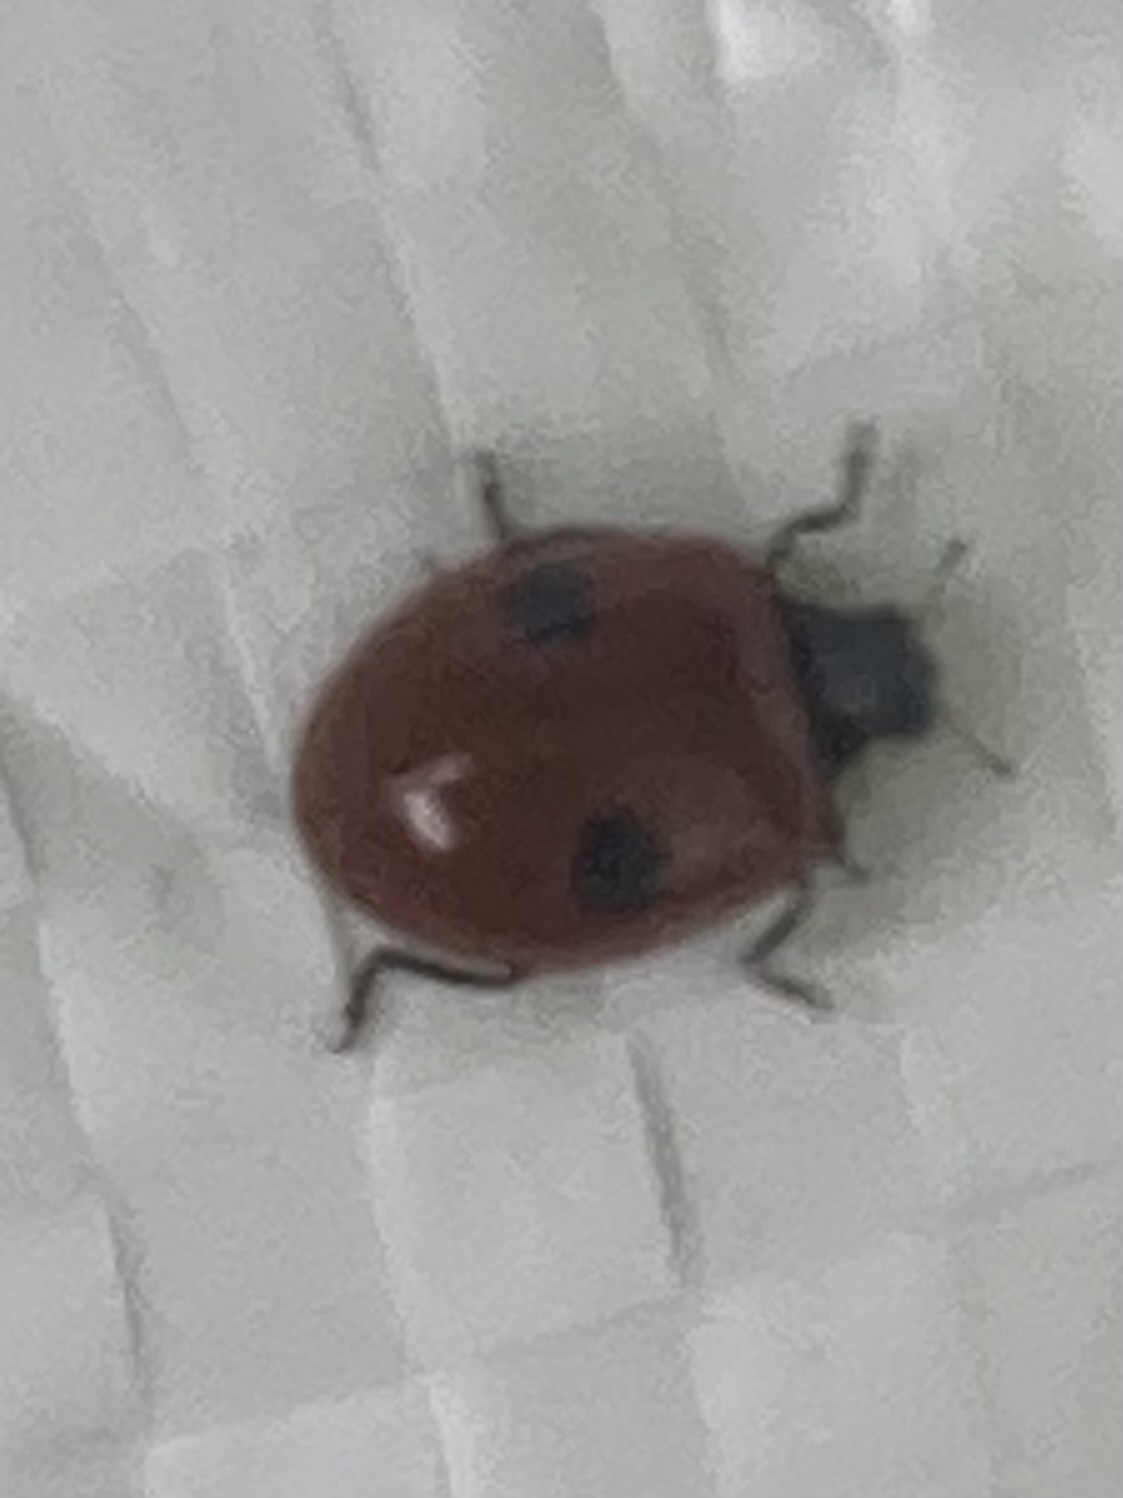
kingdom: Animalia
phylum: Arthropoda
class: Insecta
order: Coleoptera
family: Coccinellidae
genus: Adalia
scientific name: Adalia bipunctata
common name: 2-spot ladybird
